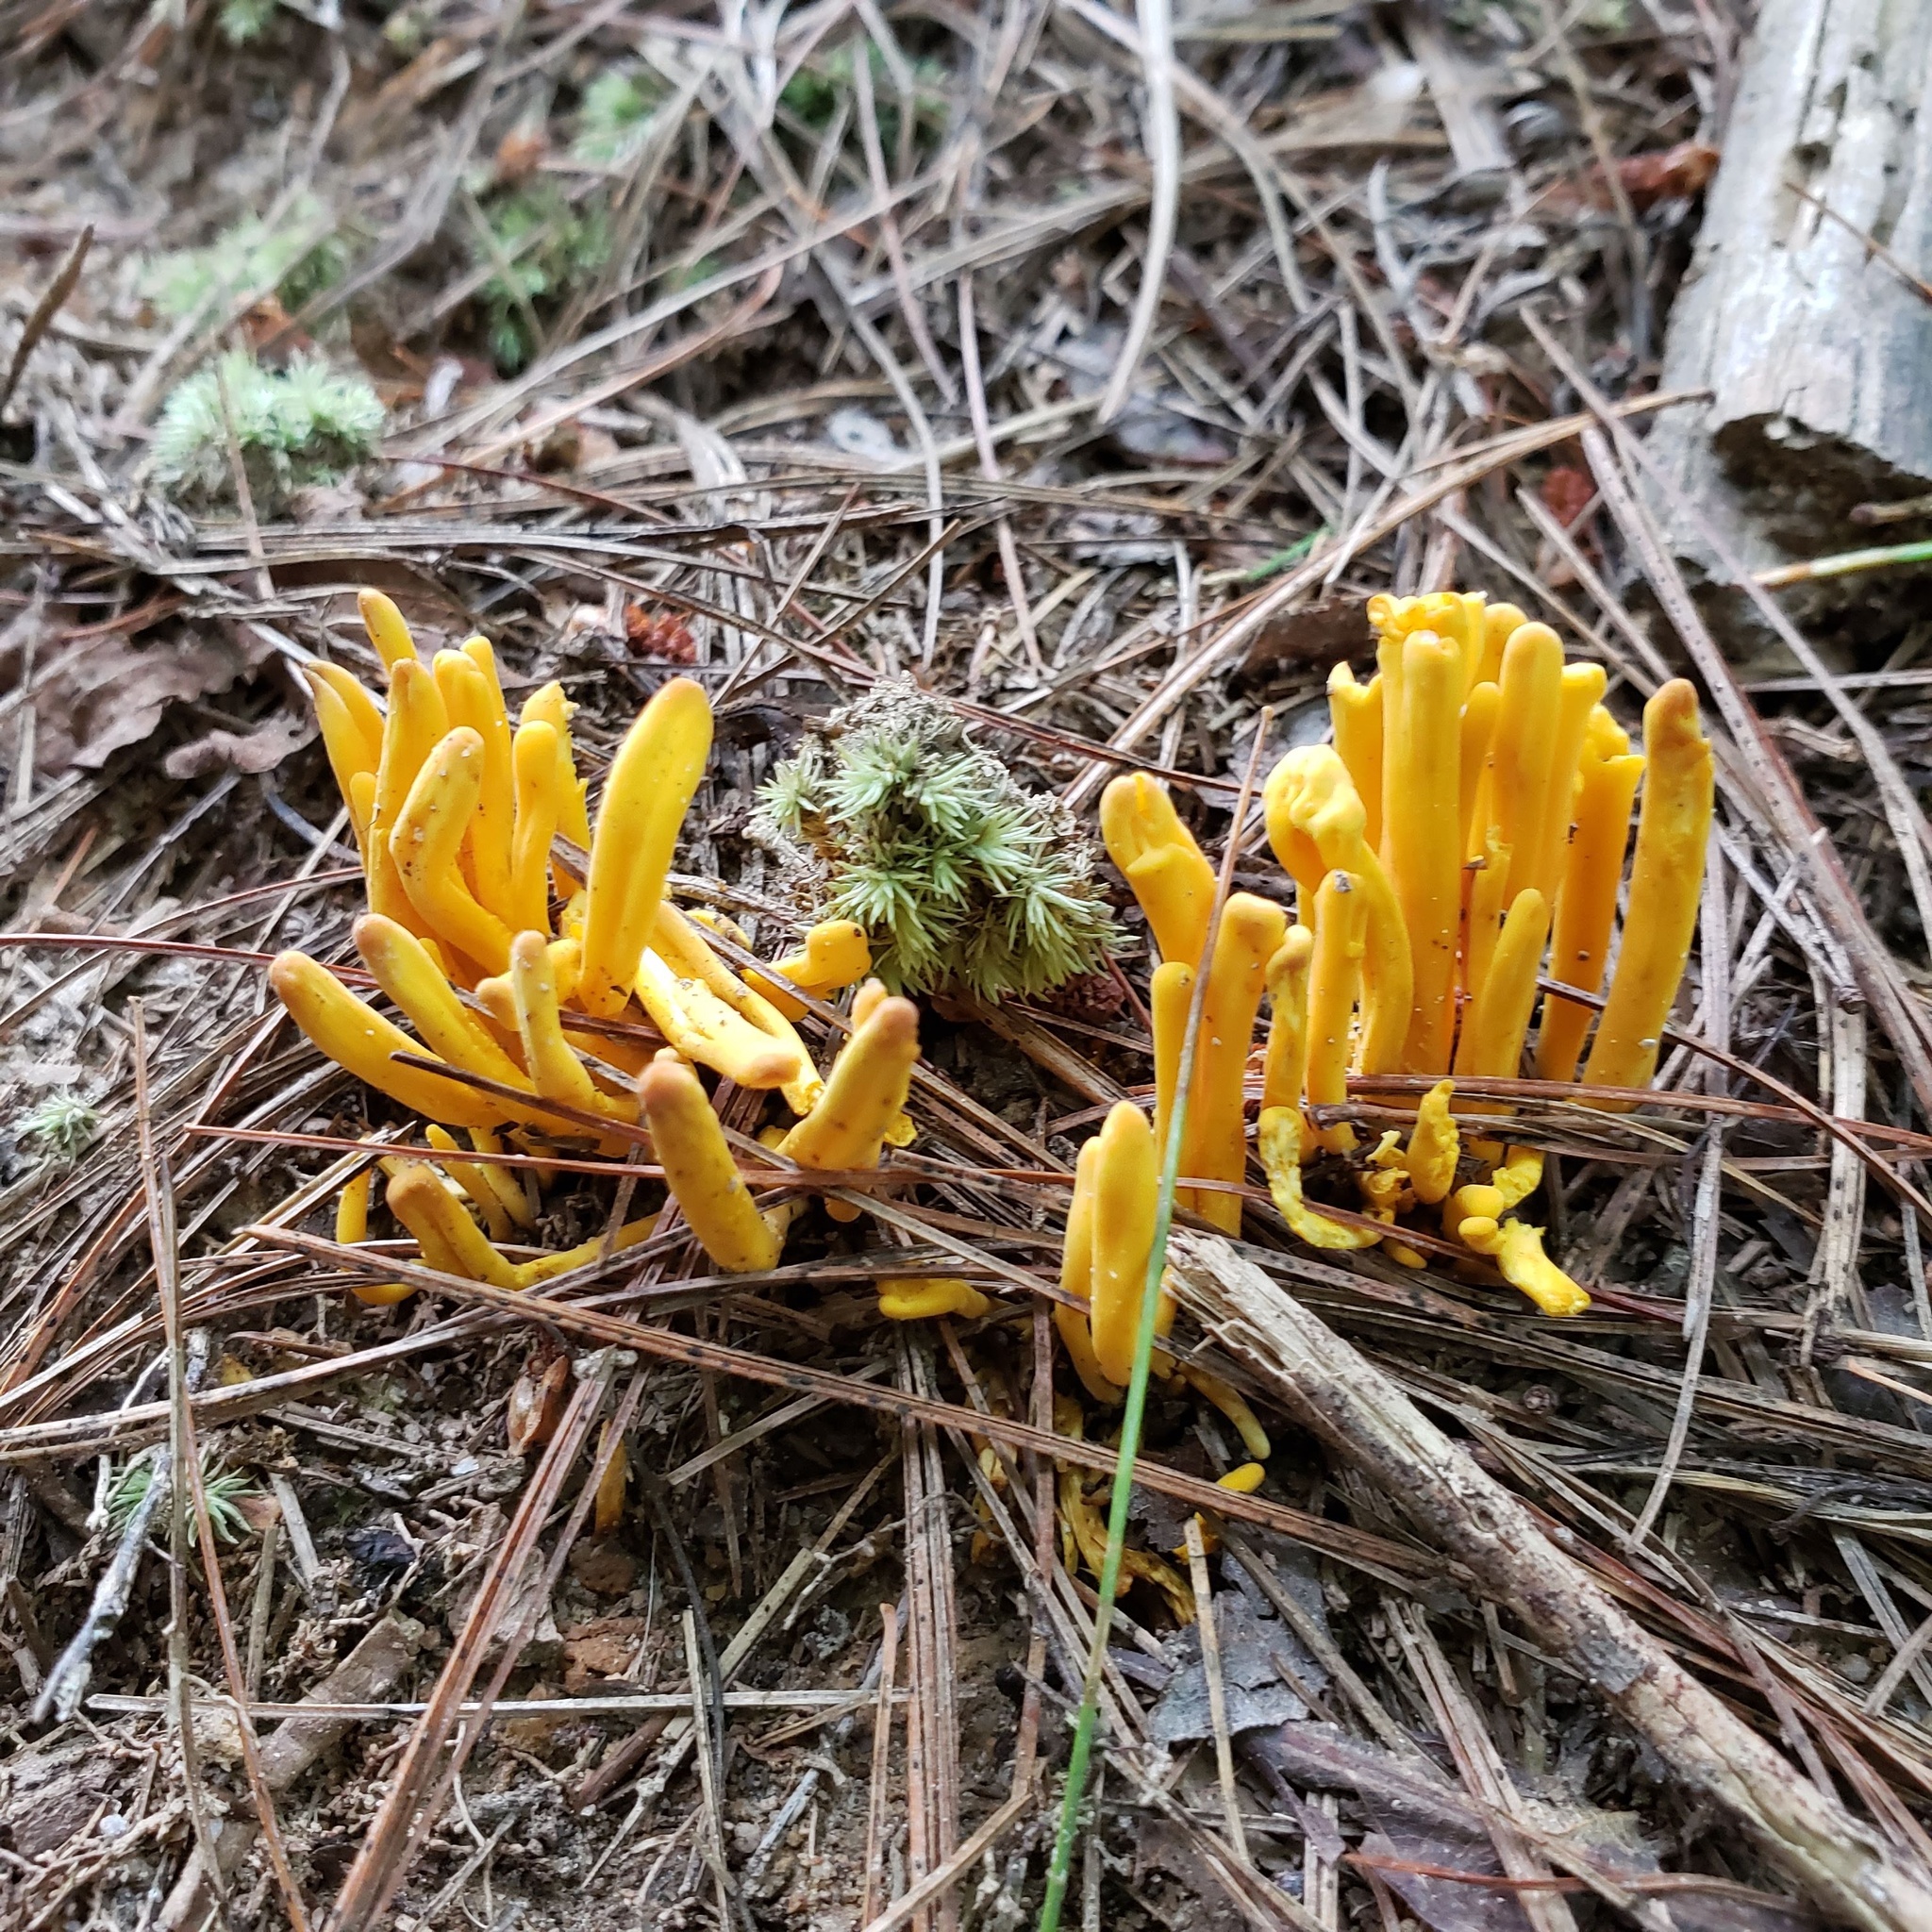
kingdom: Fungi
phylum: Basidiomycota
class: Agaricomycetes
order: Agaricales
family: Clavariaceae
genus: Clavulinopsis
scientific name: Clavulinopsis fusiformis
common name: Golden spindles
